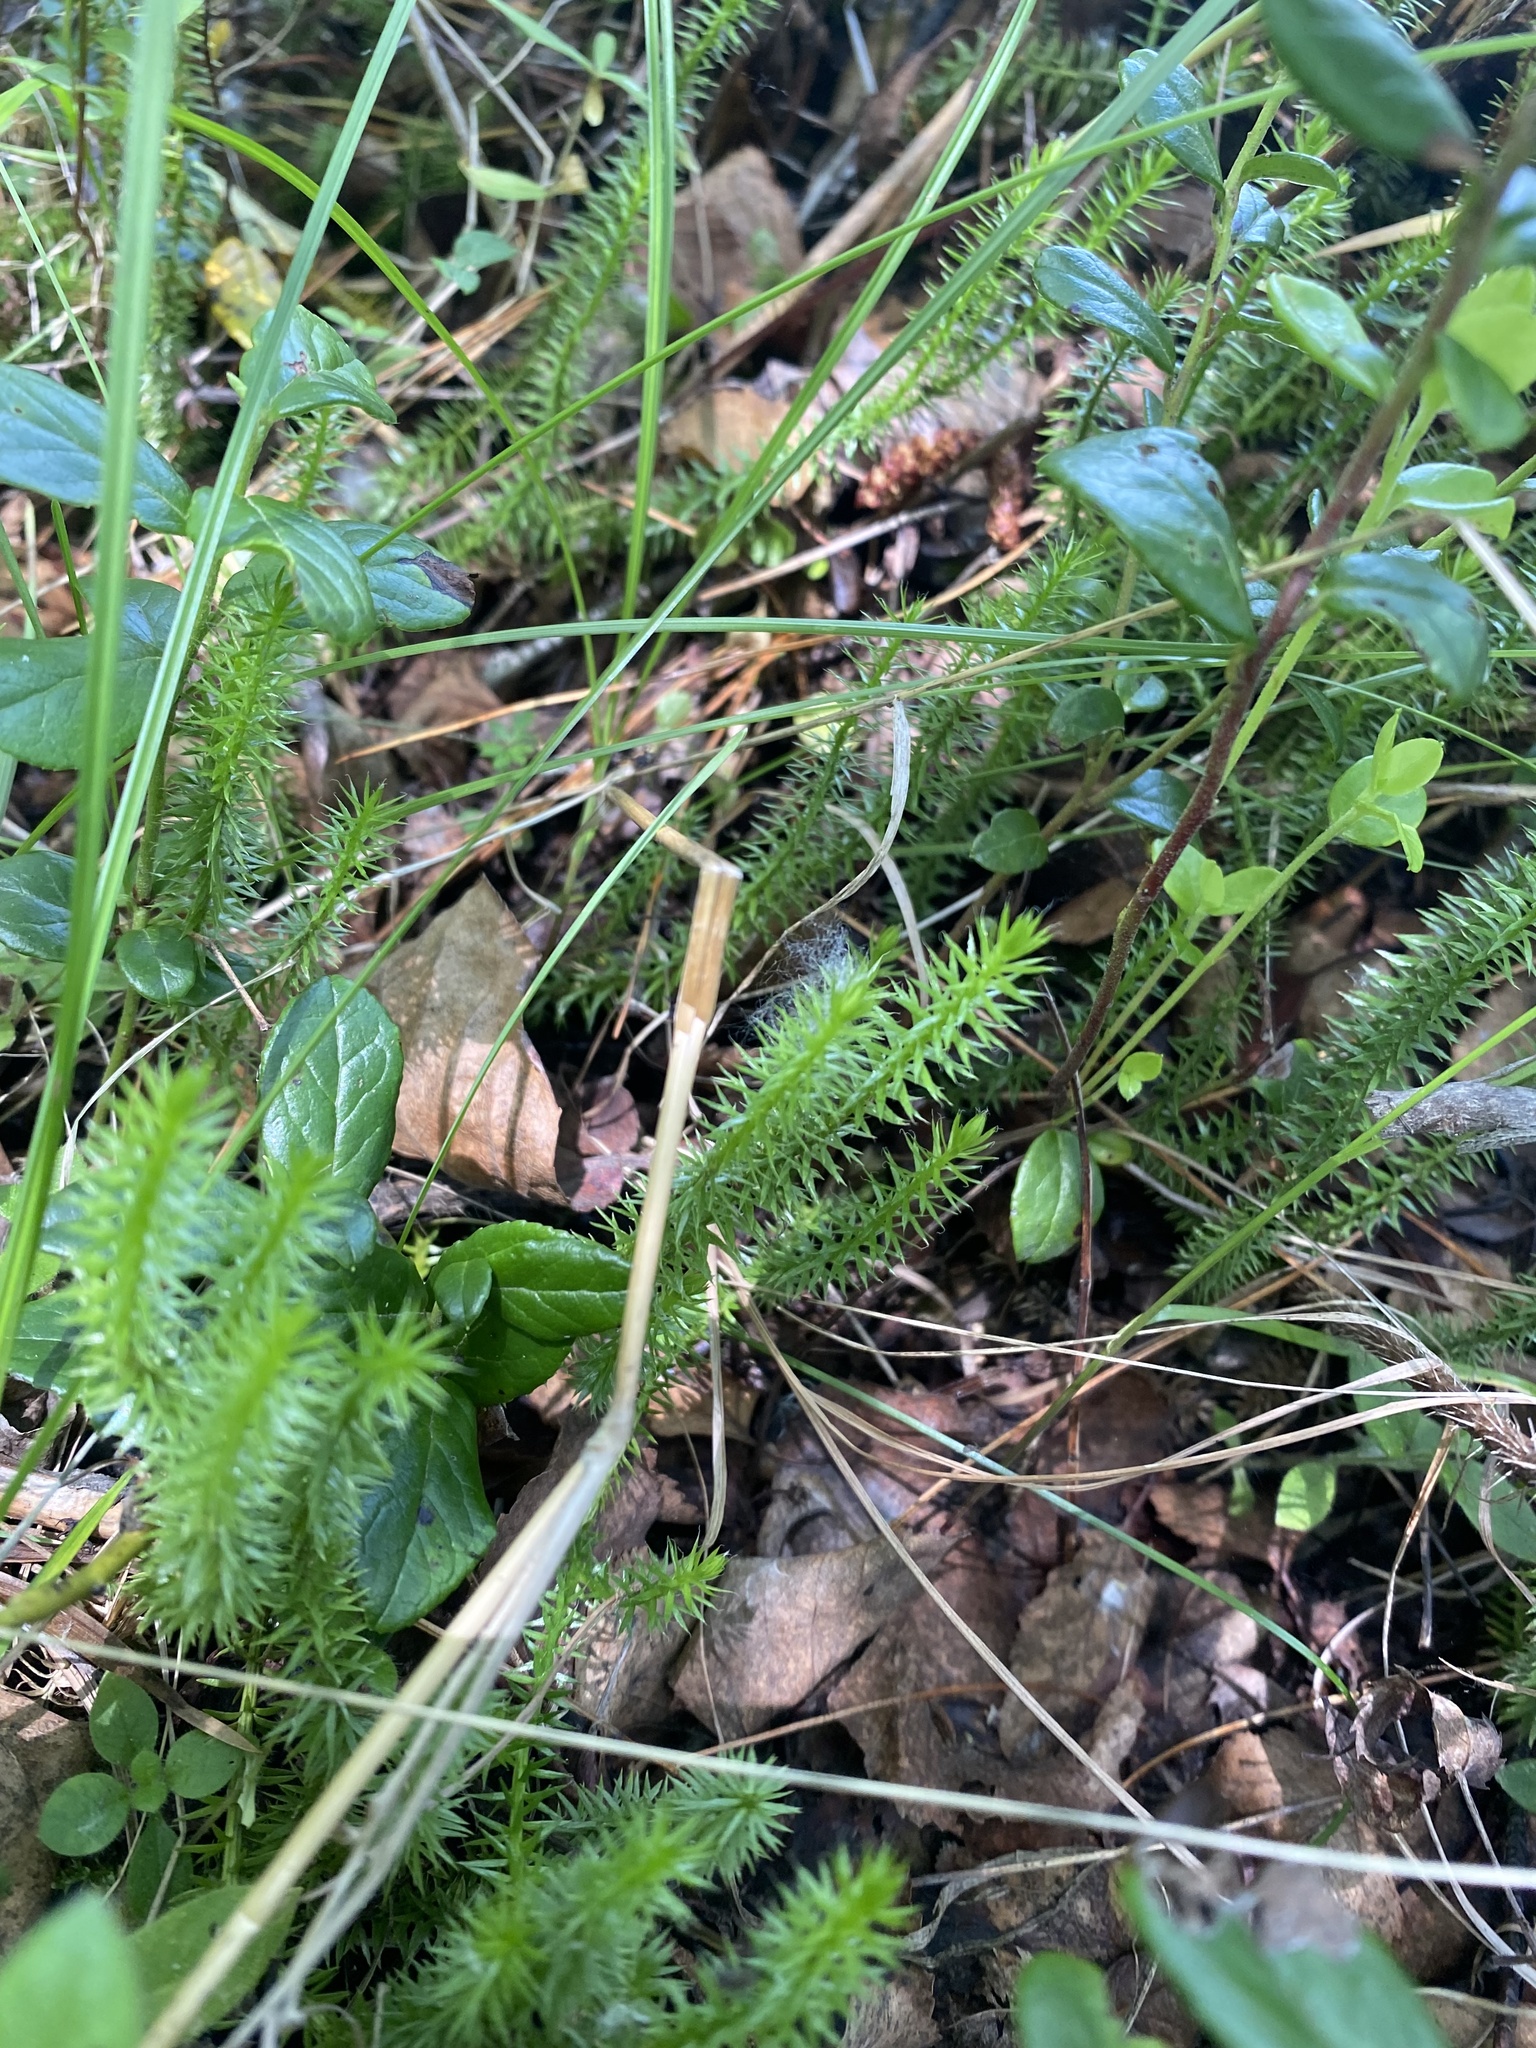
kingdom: Plantae
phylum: Tracheophyta
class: Lycopodiopsida
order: Lycopodiales
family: Lycopodiaceae
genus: Spinulum
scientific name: Spinulum annotinum
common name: Interrupted club-moss
